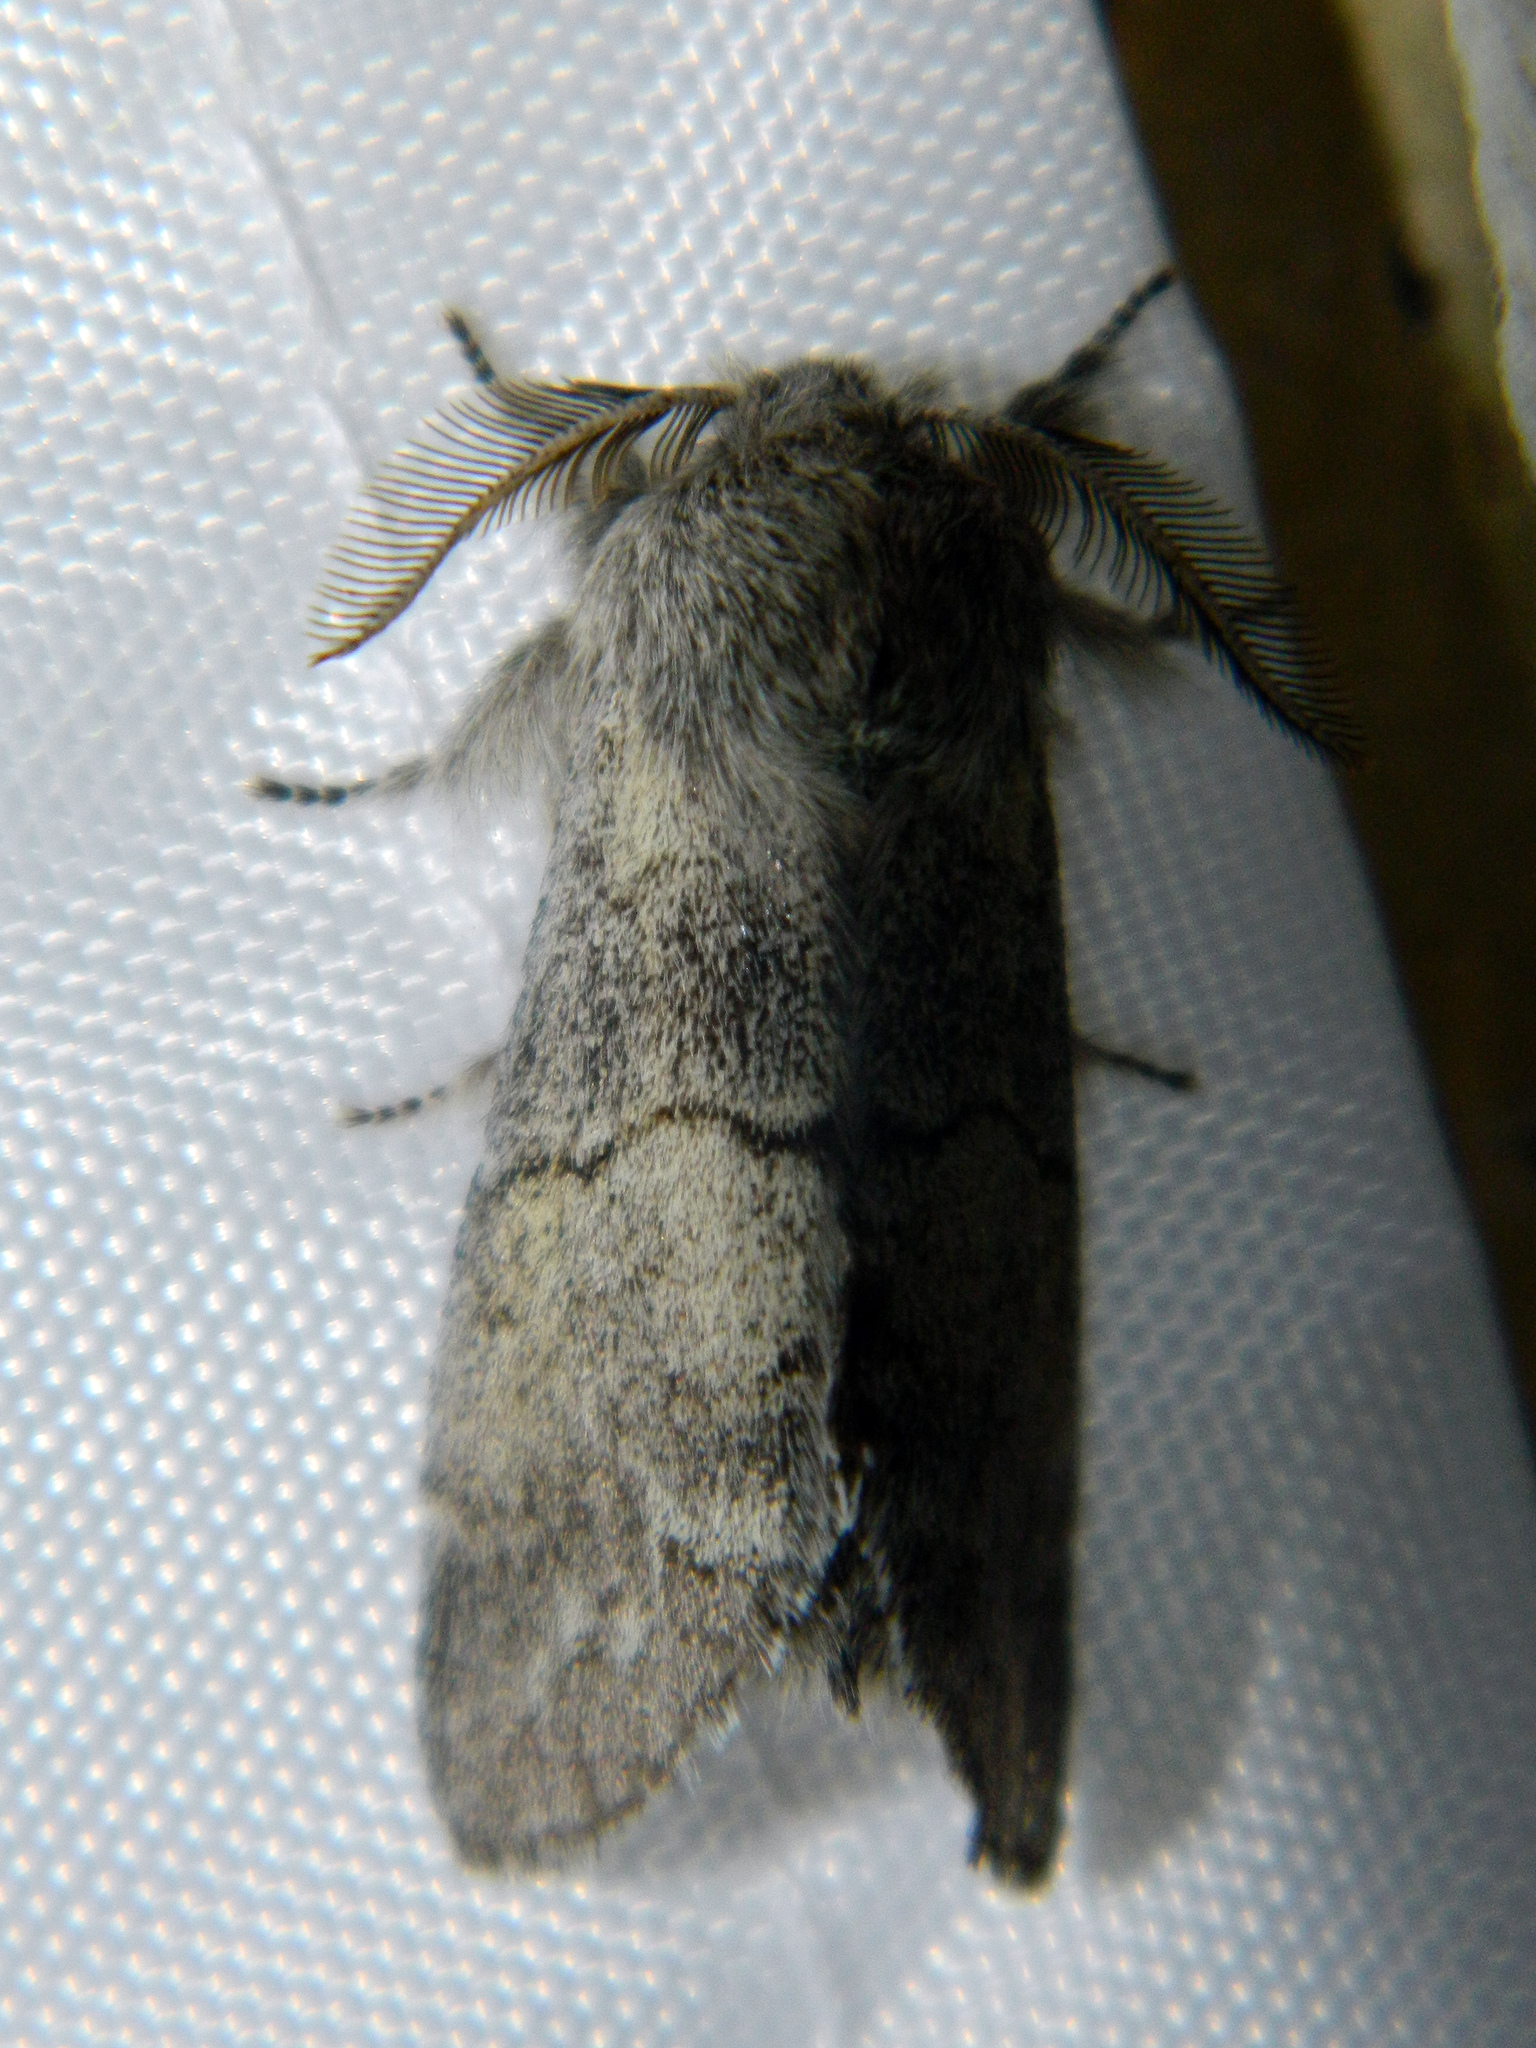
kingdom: Animalia
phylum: Arthropoda
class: Insecta
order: Lepidoptera
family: Notodontidae
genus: Gluphisia
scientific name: Gluphisia lintneri
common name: Lintner's gluphisia moth
